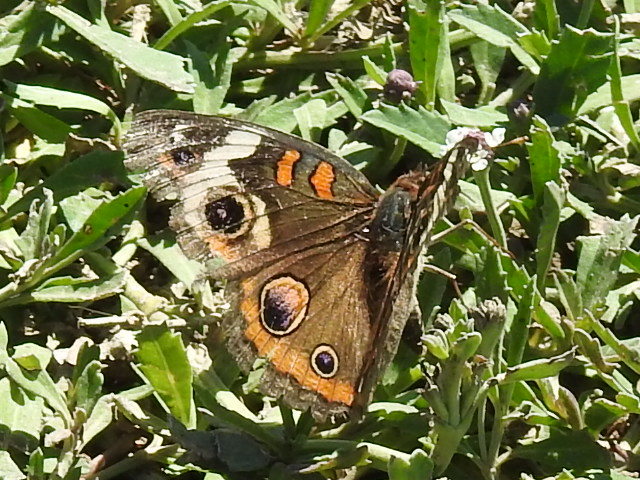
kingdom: Animalia
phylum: Arthropoda
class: Insecta
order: Lepidoptera
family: Nymphalidae
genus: Junonia
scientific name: Junonia coenia
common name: Common buckeye
